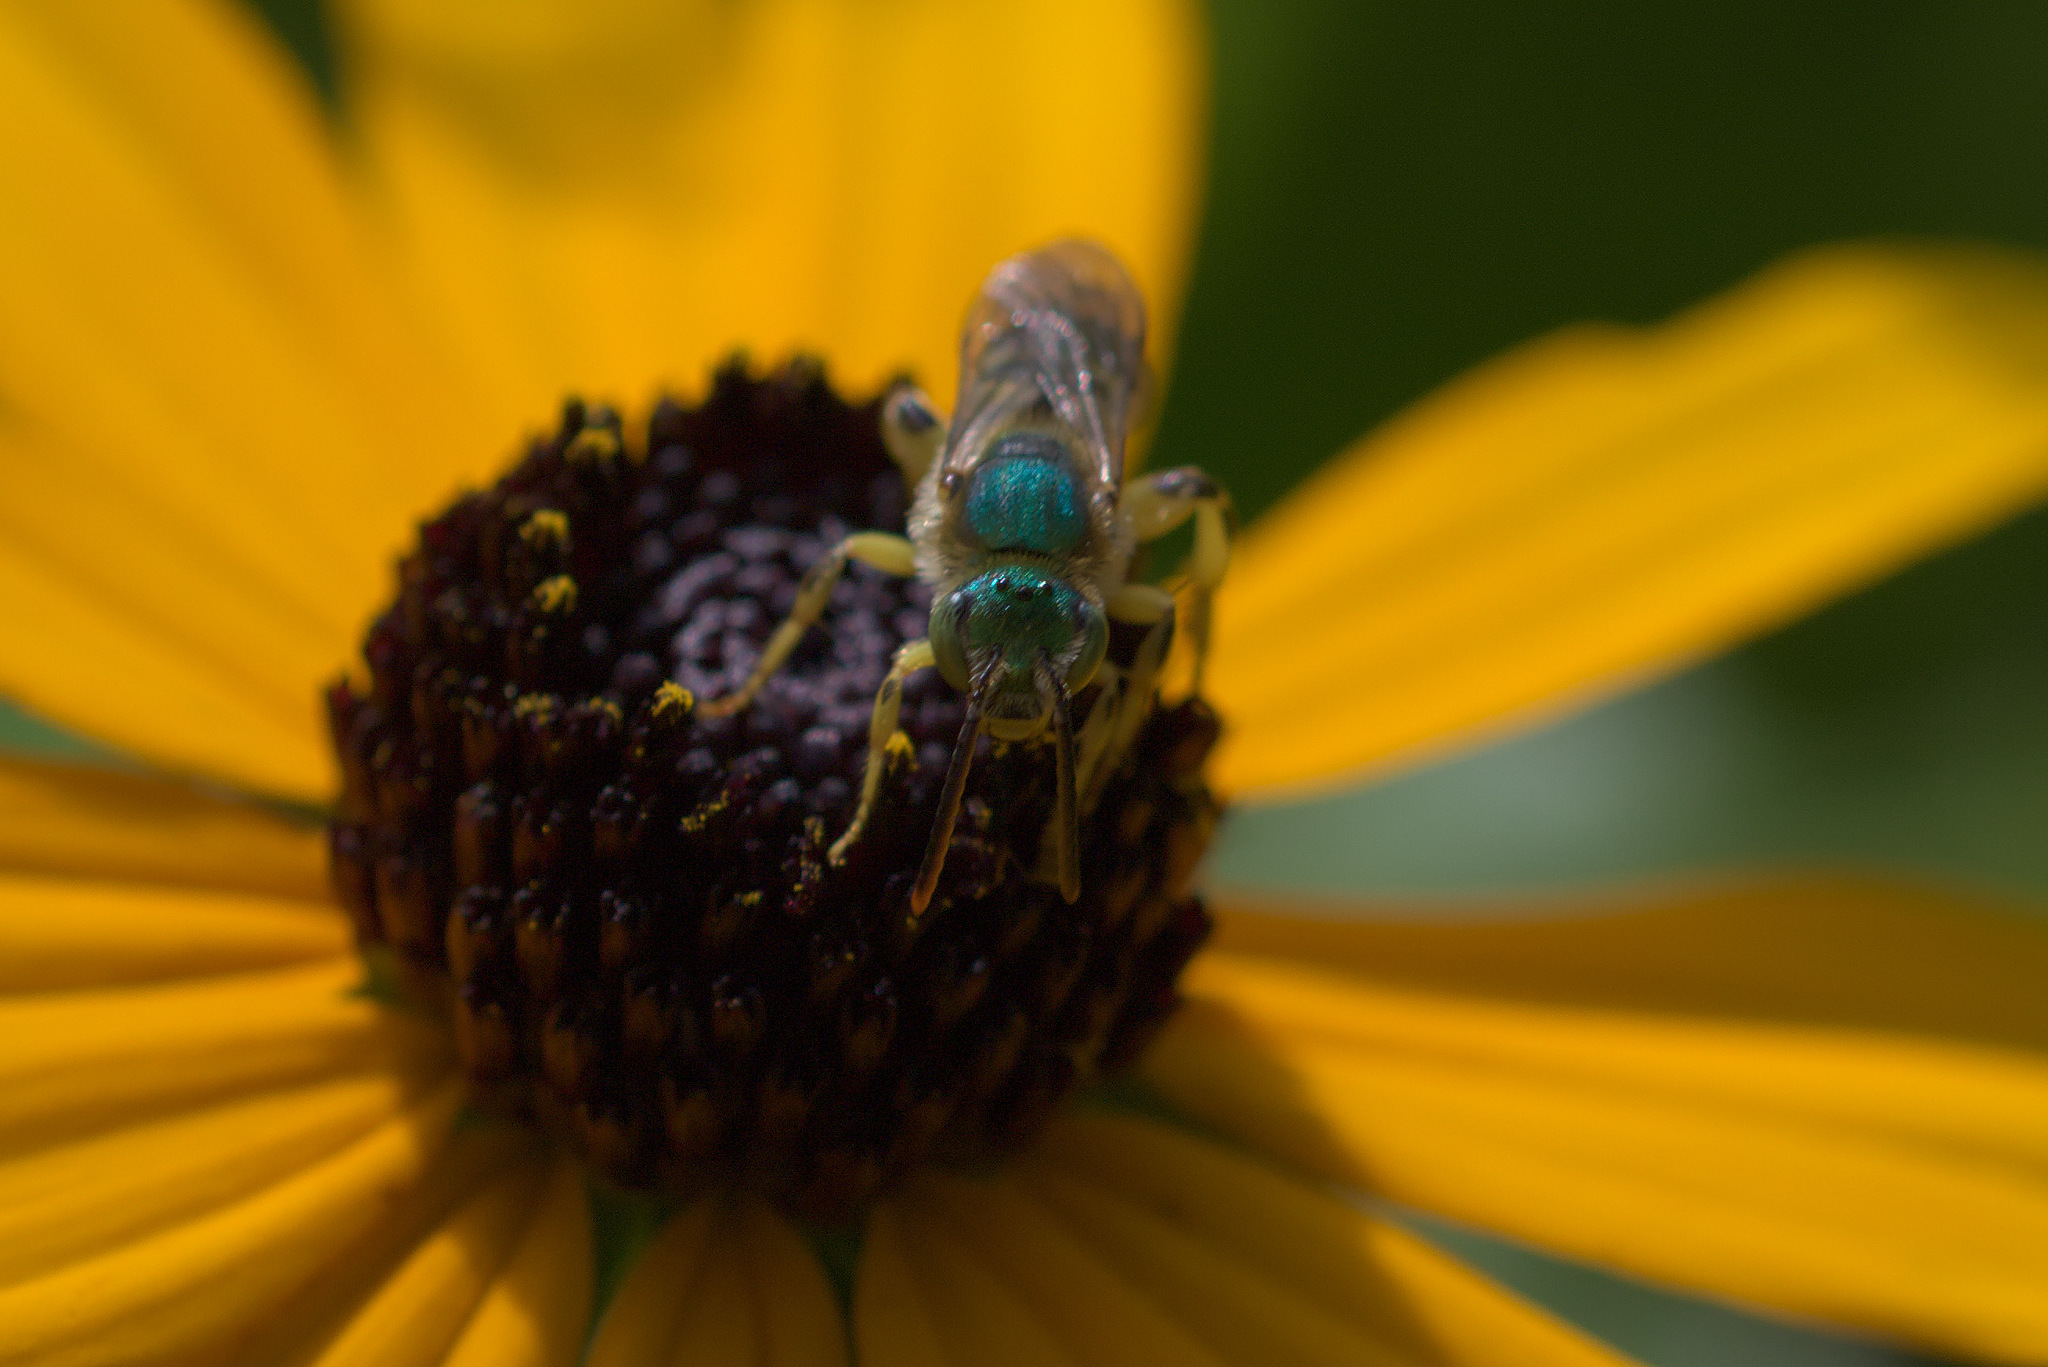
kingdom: Animalia
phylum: Arthropoda
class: Insecta
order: Hymenoptera
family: Halictidae
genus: Agapostemon
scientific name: Agapostemon texanus
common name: Texas striped sweat bee
